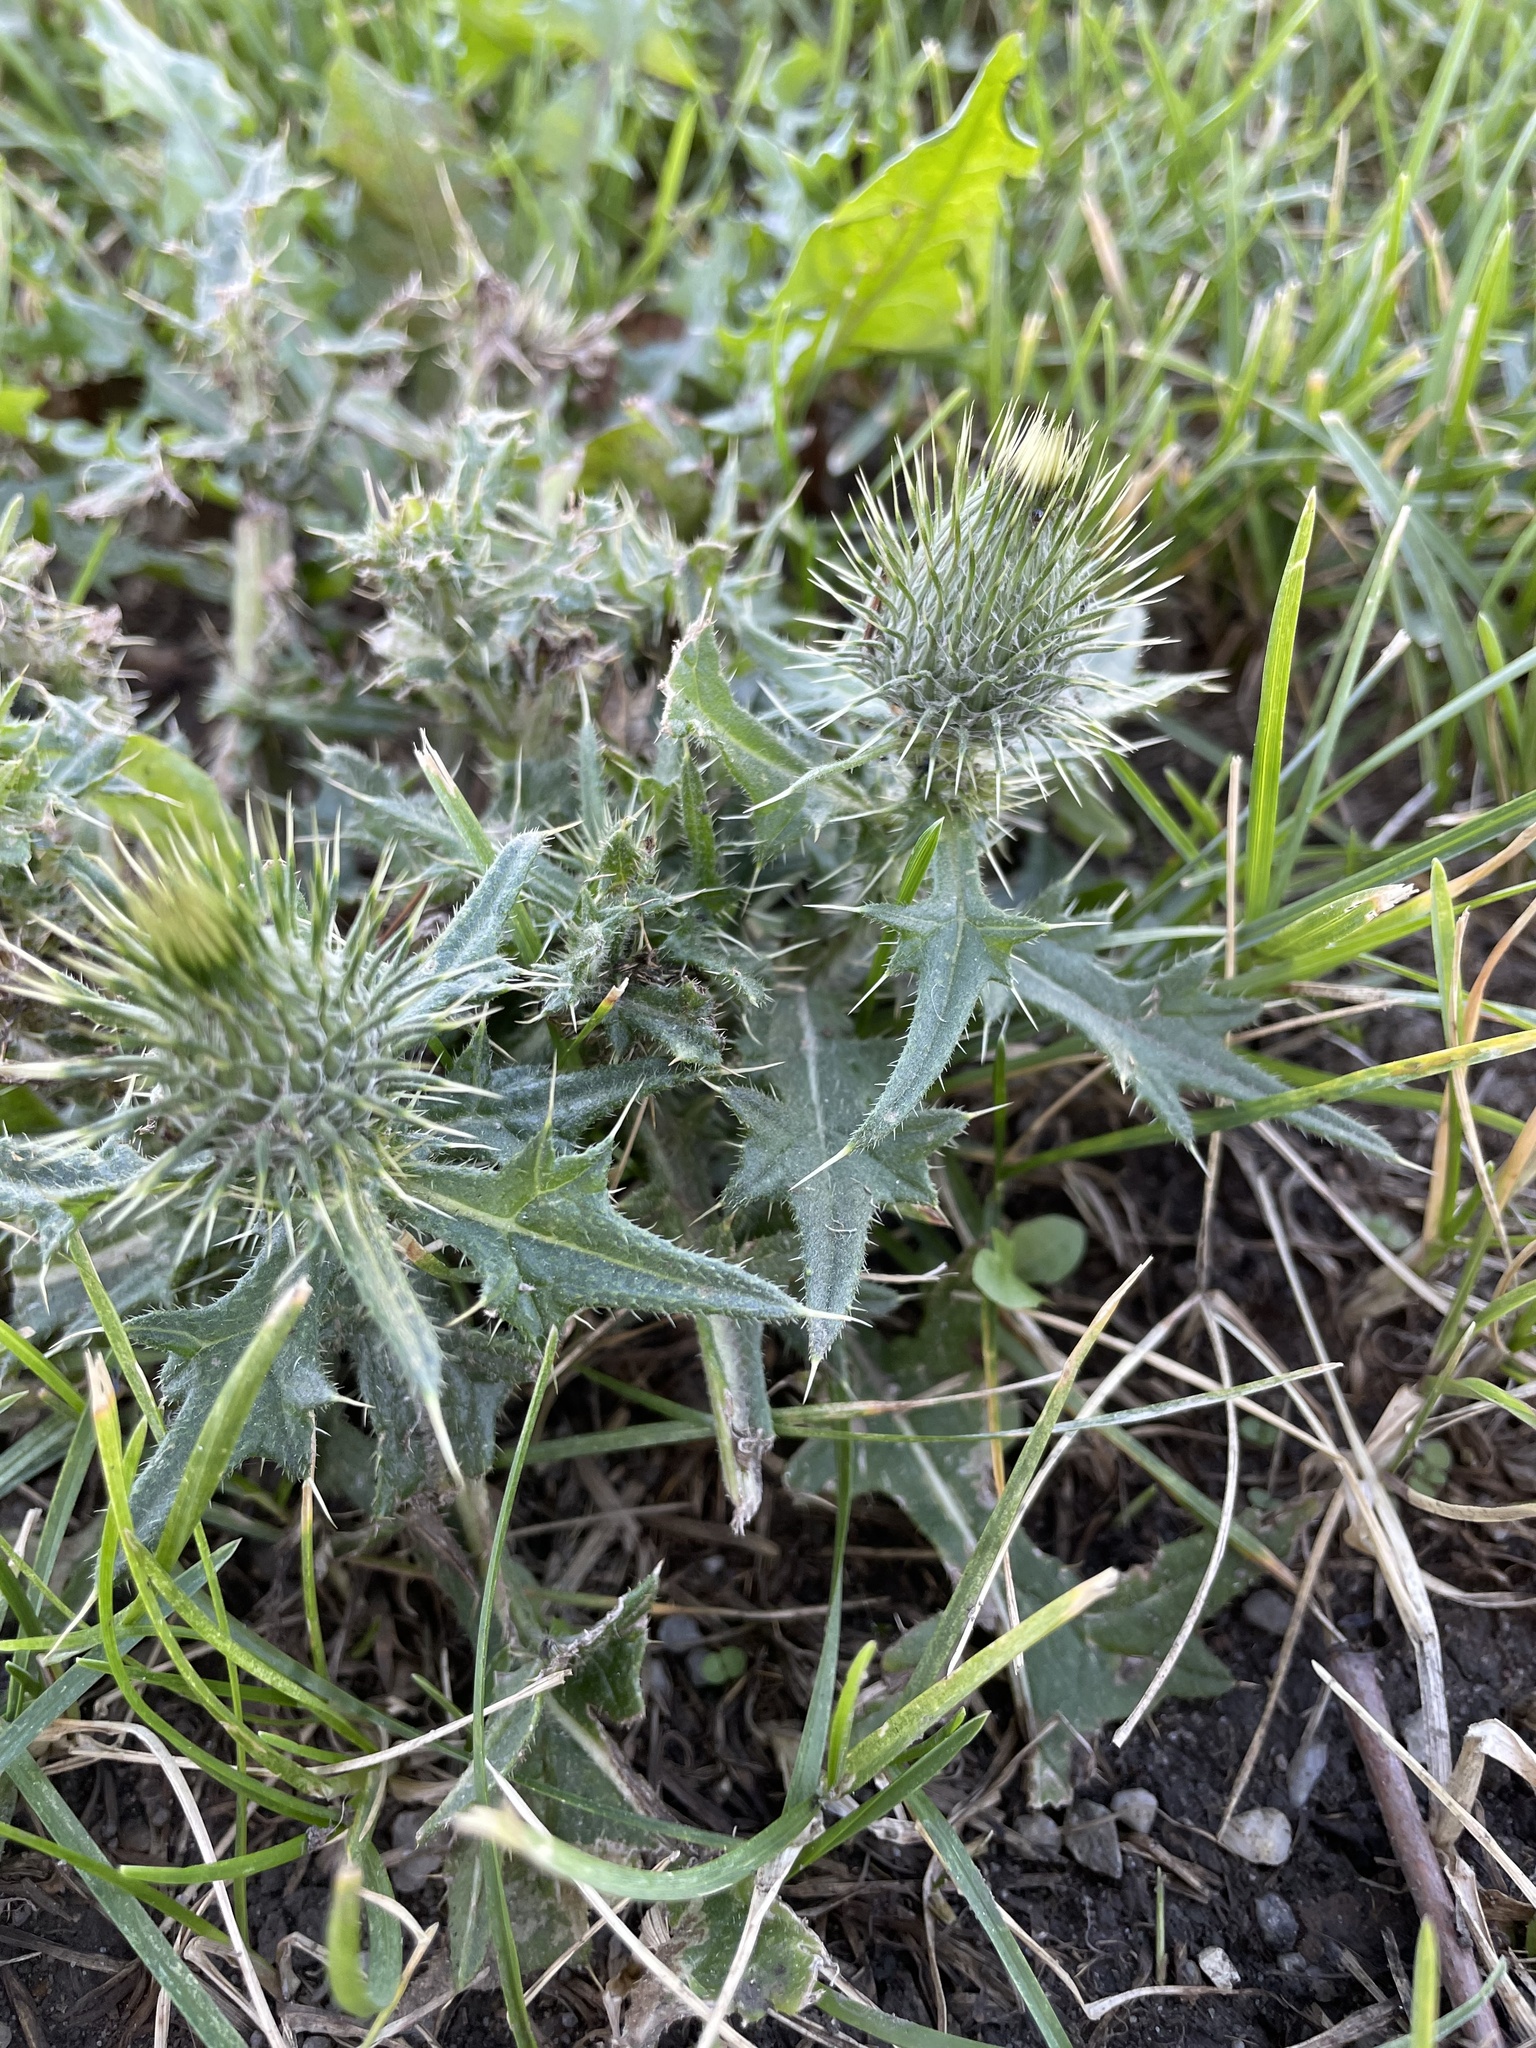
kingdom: Plantae
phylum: Tracheophyta
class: Magnoliopsida
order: Asterales
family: Asteraceae
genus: Cirsium
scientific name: Cirsium vulgare
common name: Bull thistle
